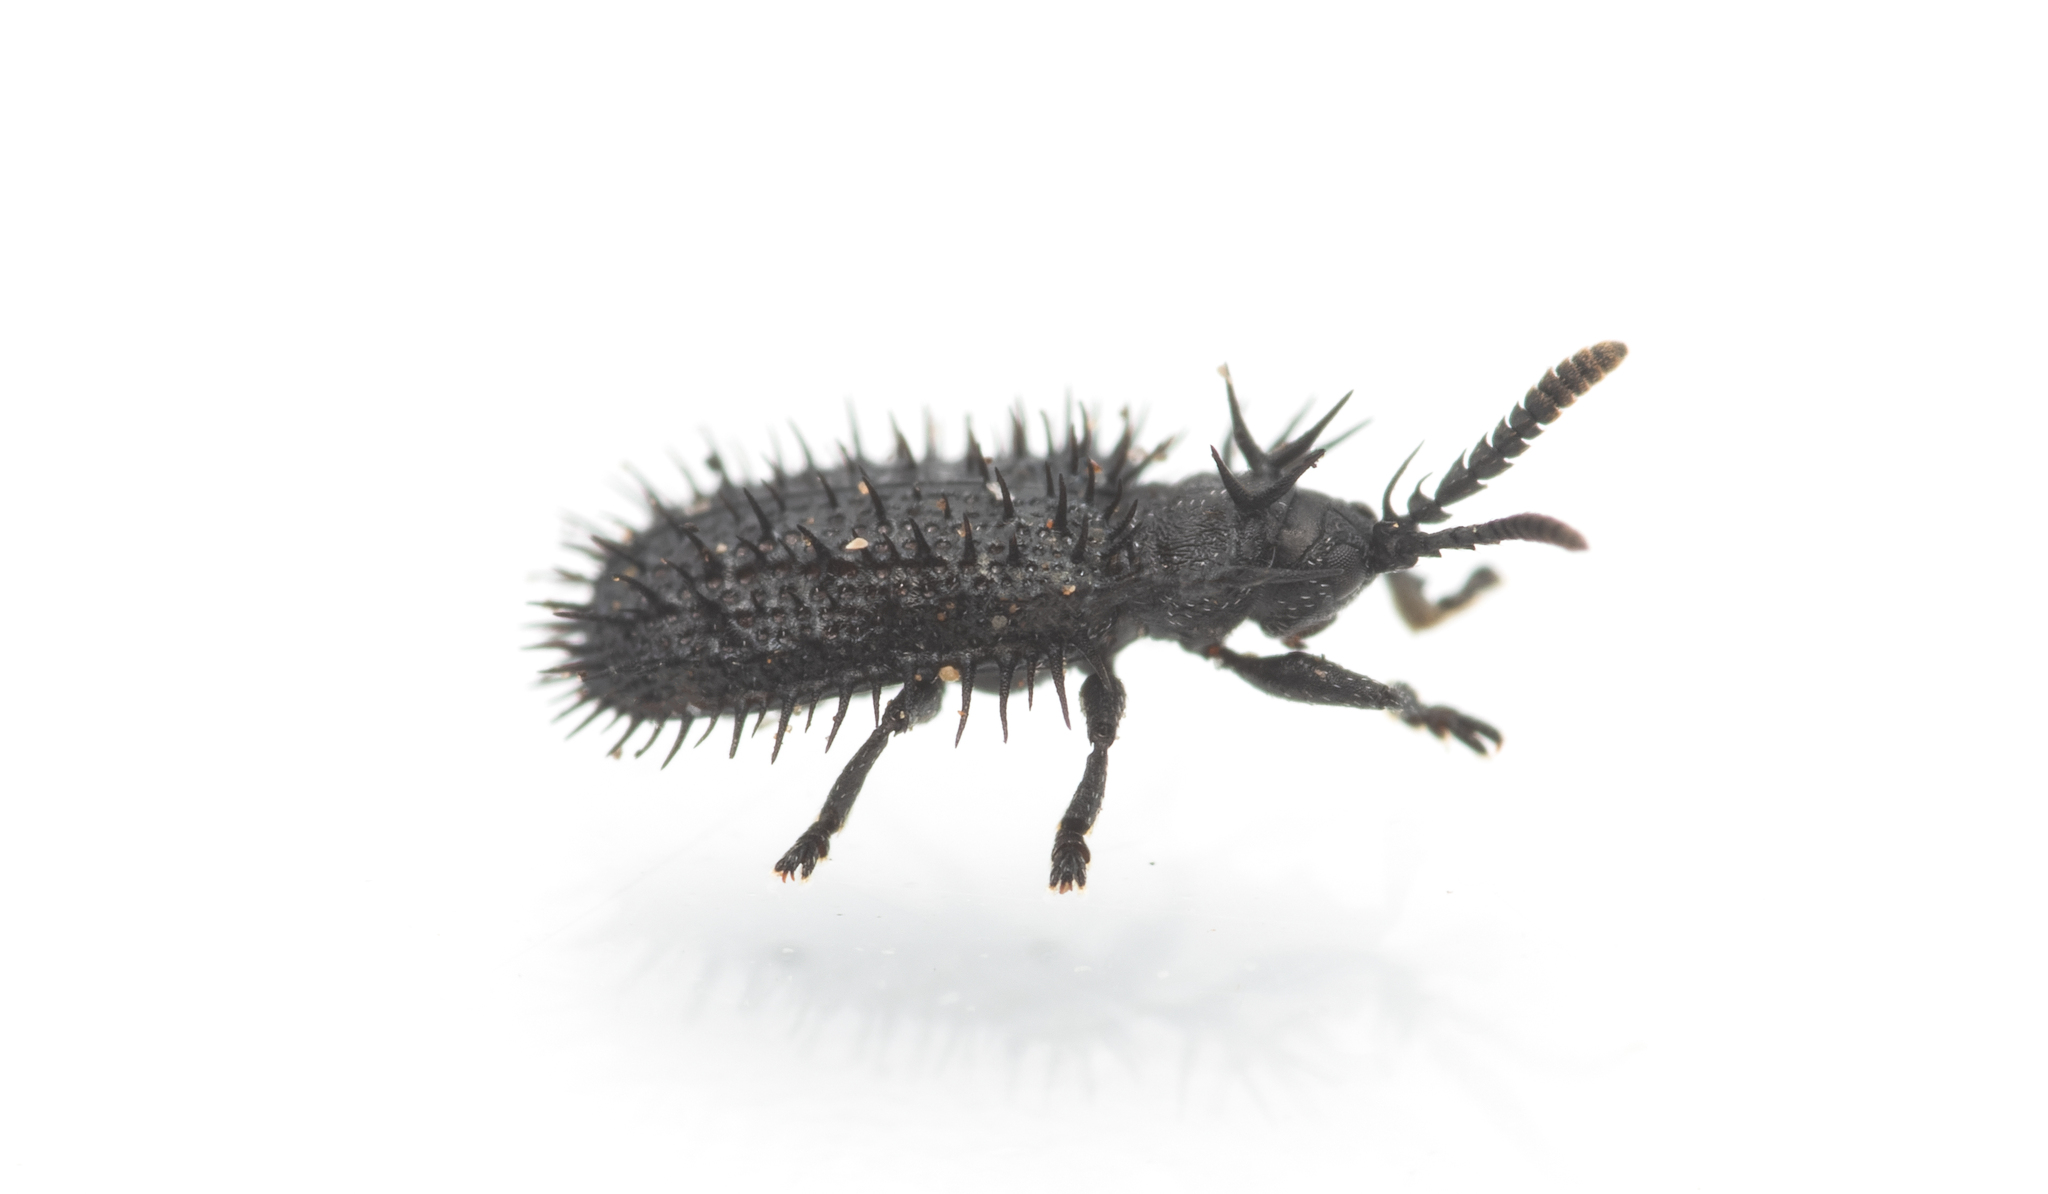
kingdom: Animalia
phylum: Arthropoda
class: Insecta
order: Coleoptera
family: Chrysomelidae
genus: Hispa
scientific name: Hispa atra
